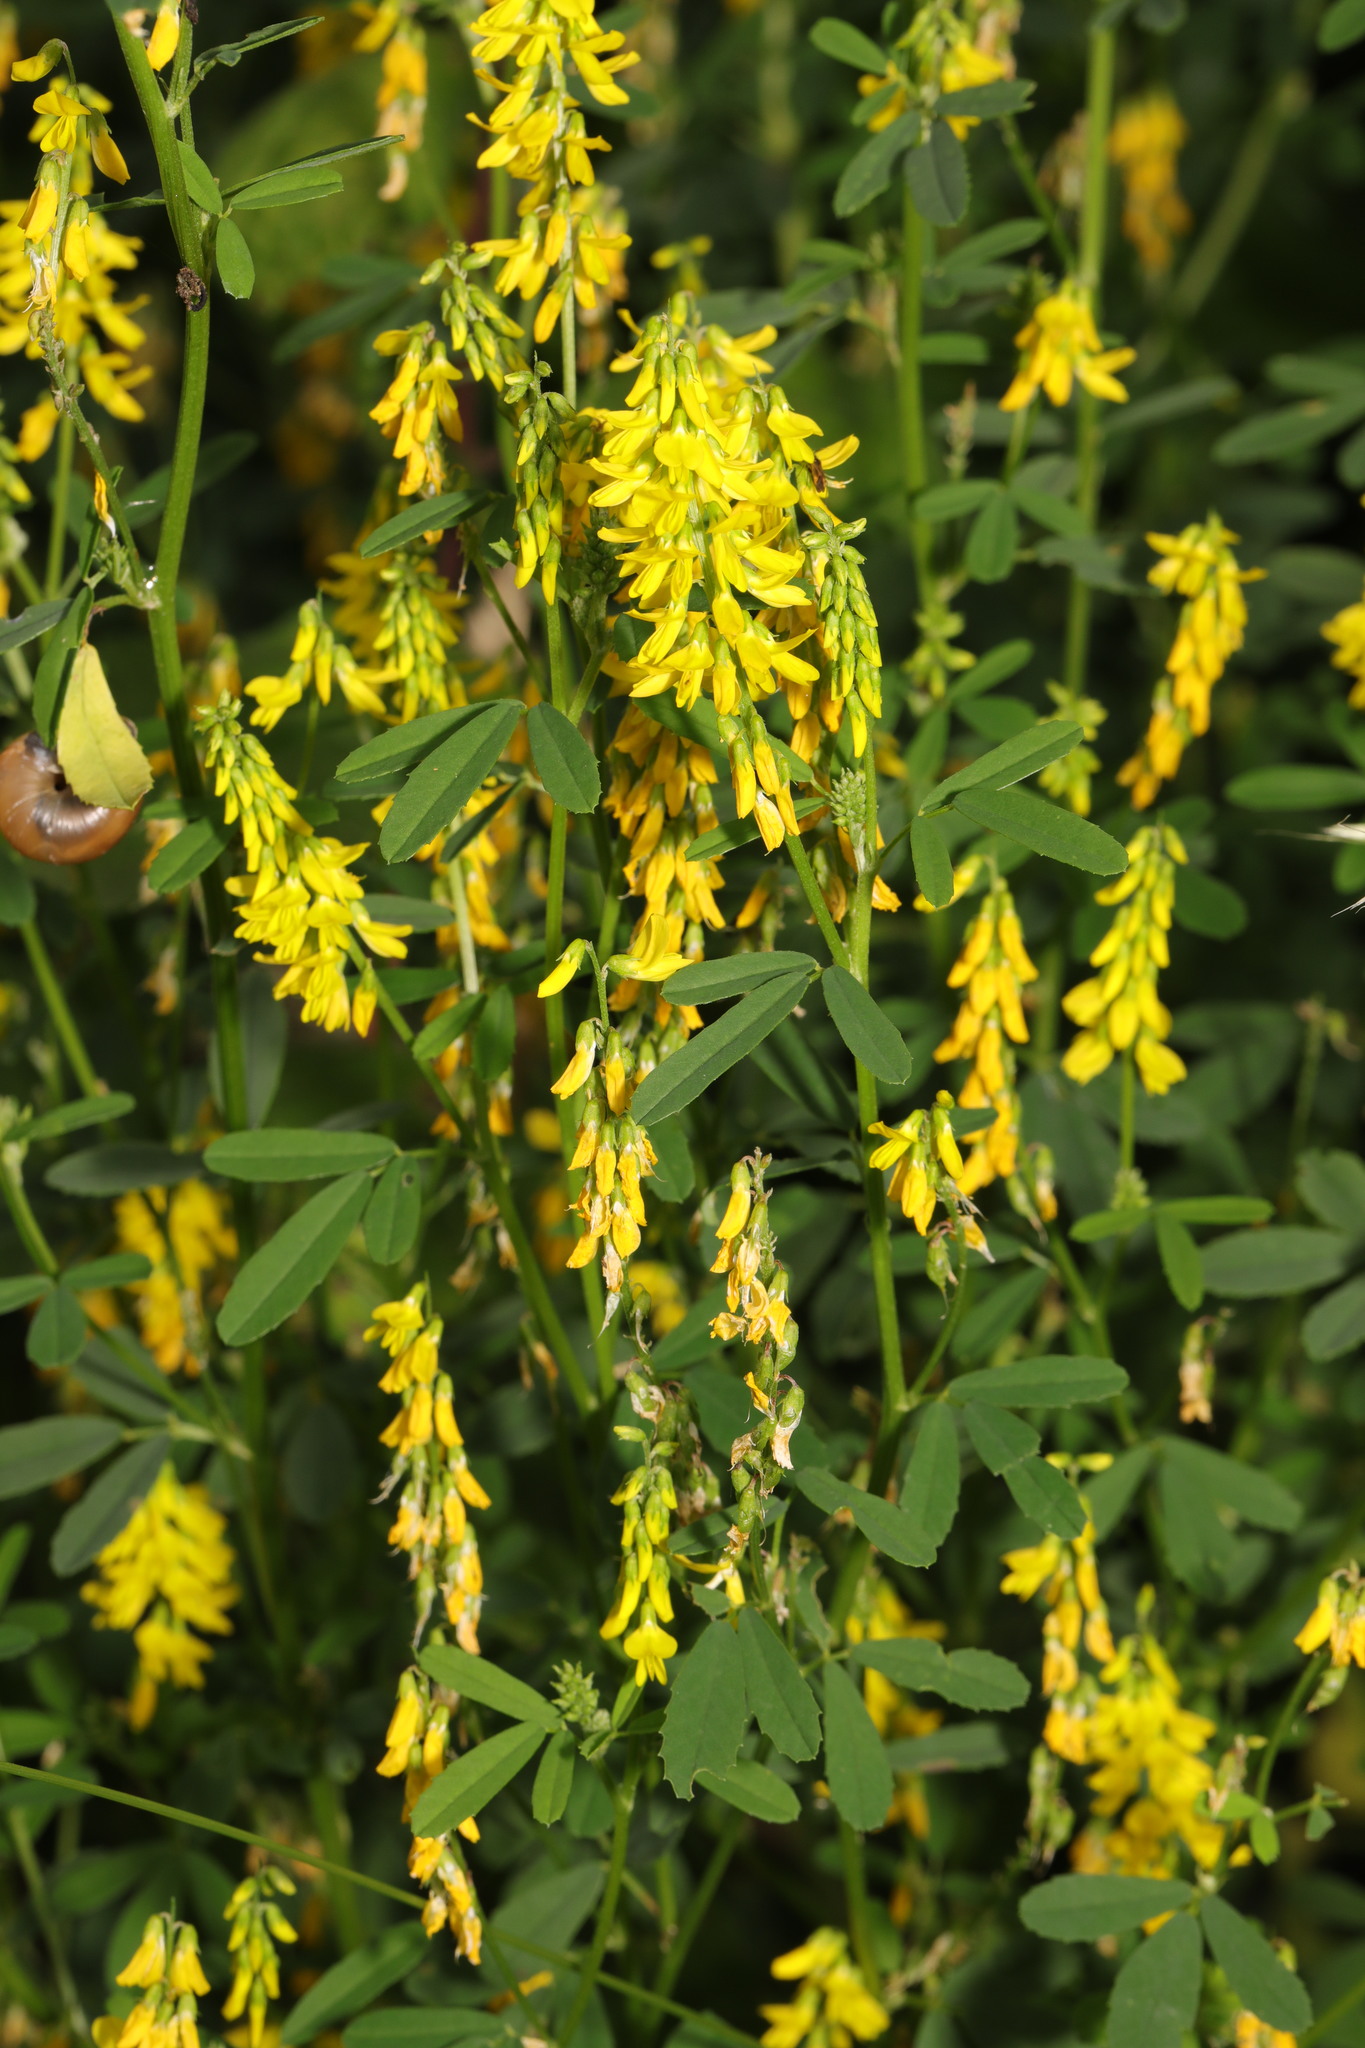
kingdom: Plantae
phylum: Tracheophyta
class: Magnoliopsida
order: Fabales
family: Fabaceae
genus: Melilotus
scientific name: Melilotus officinalis
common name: Sweetclover
